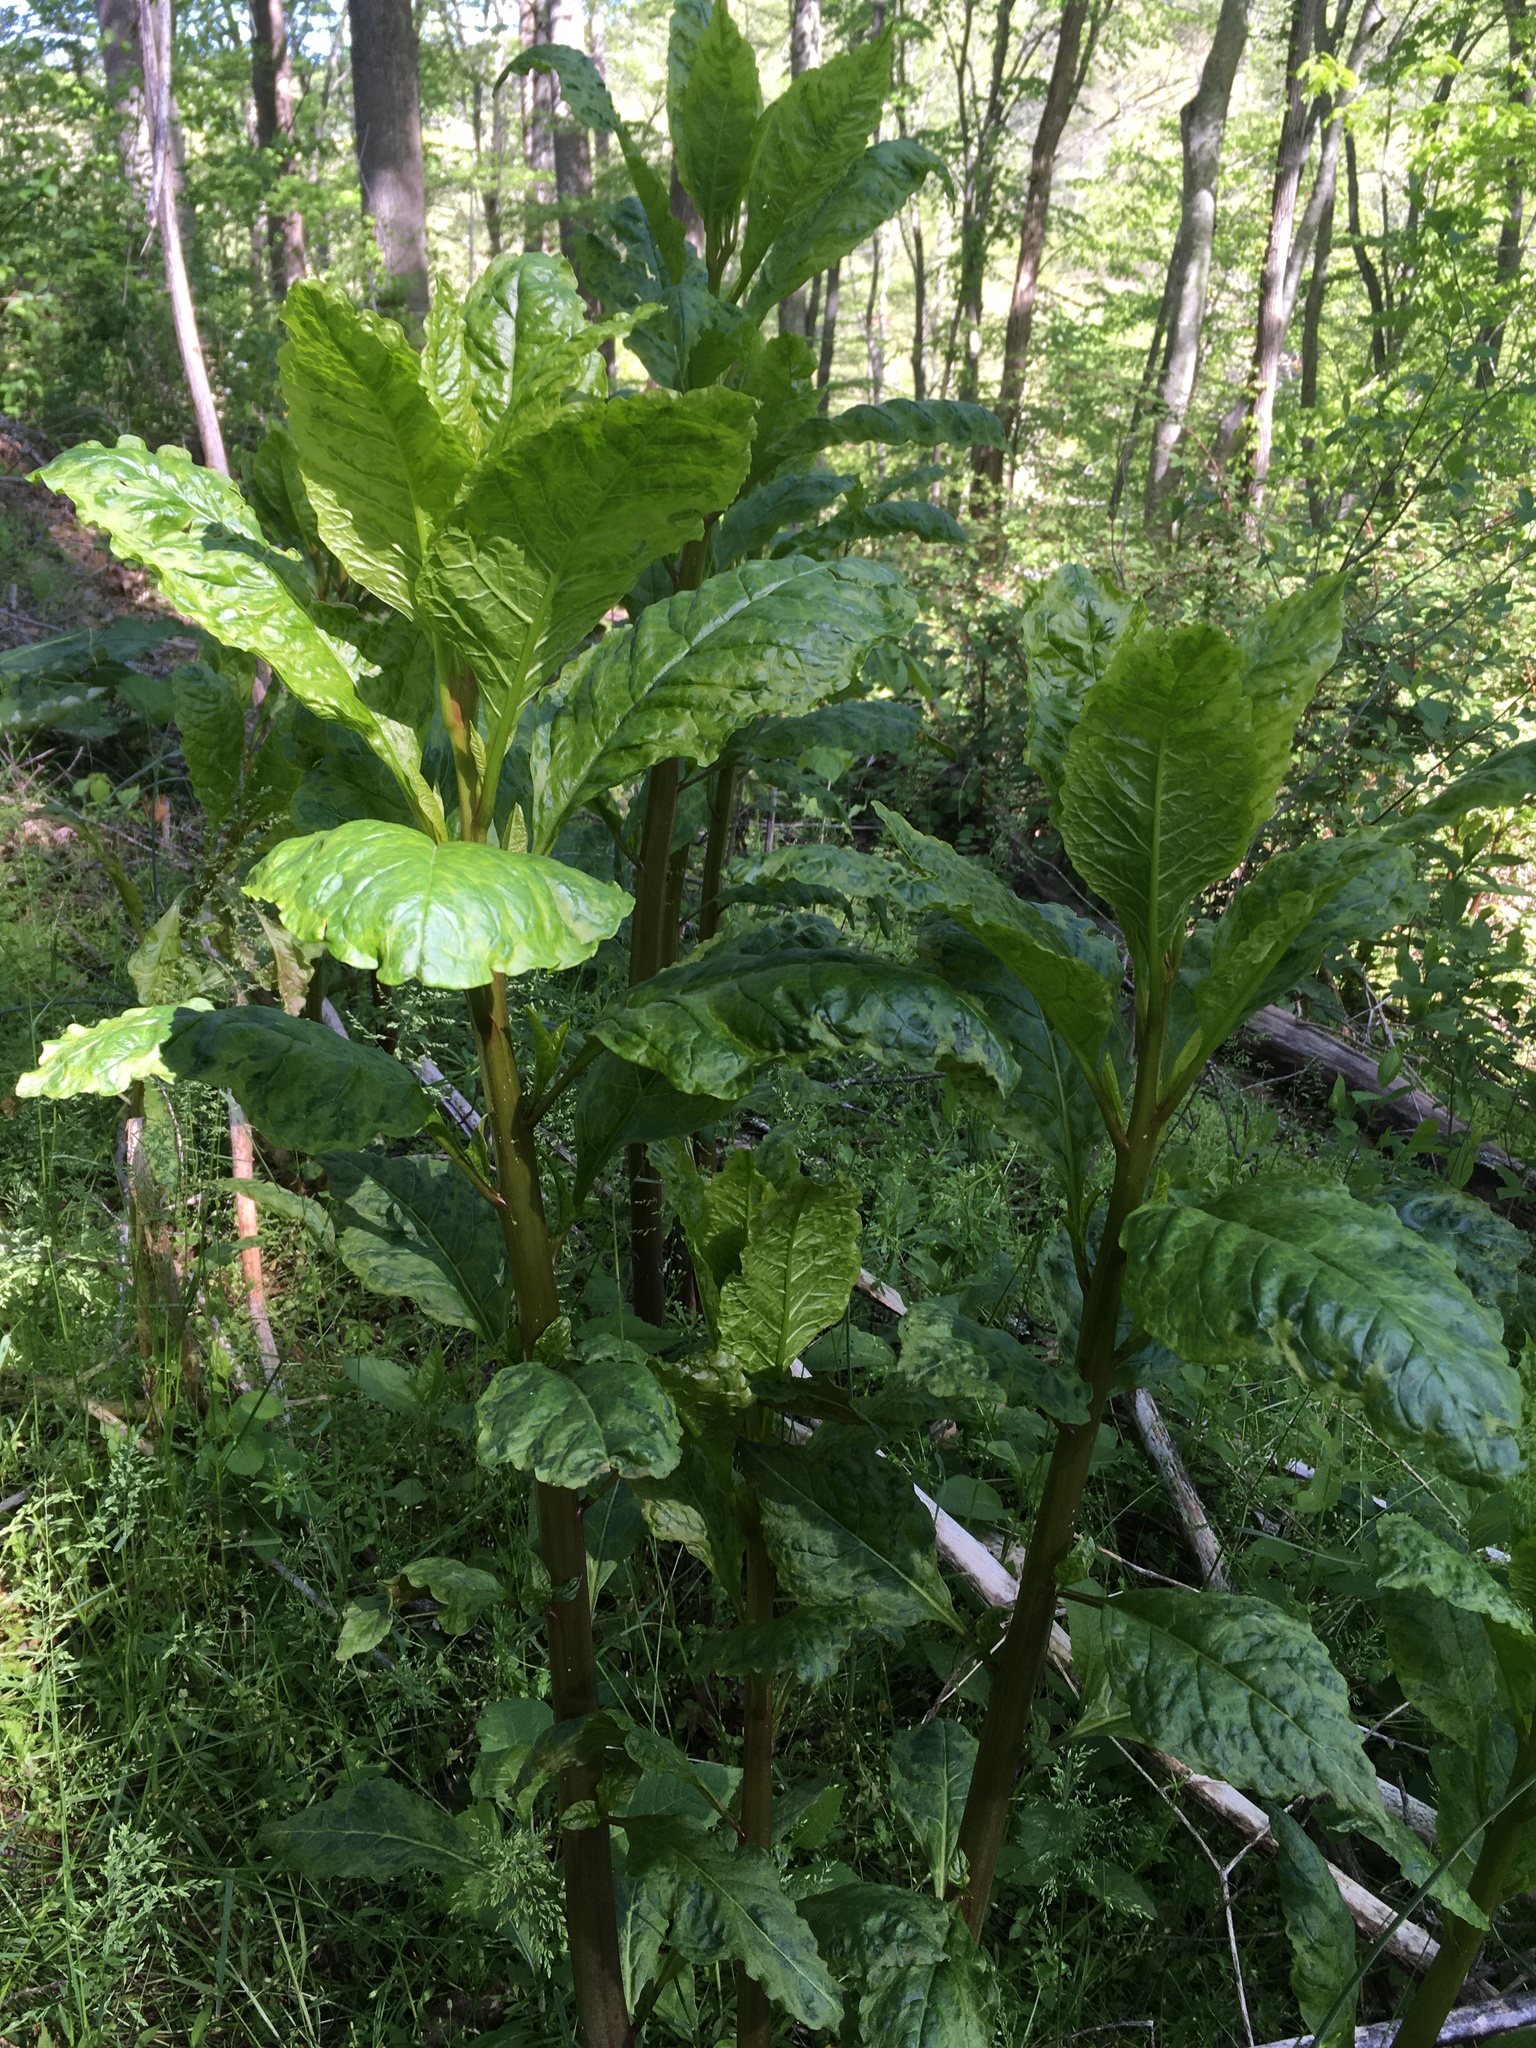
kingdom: Plantae
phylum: Tracheophyta
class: Magnoliopsida
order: Caryophyllales
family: Phytolaccaceae
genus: Phytolacca
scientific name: Phytolacca americana
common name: American pokeweed
